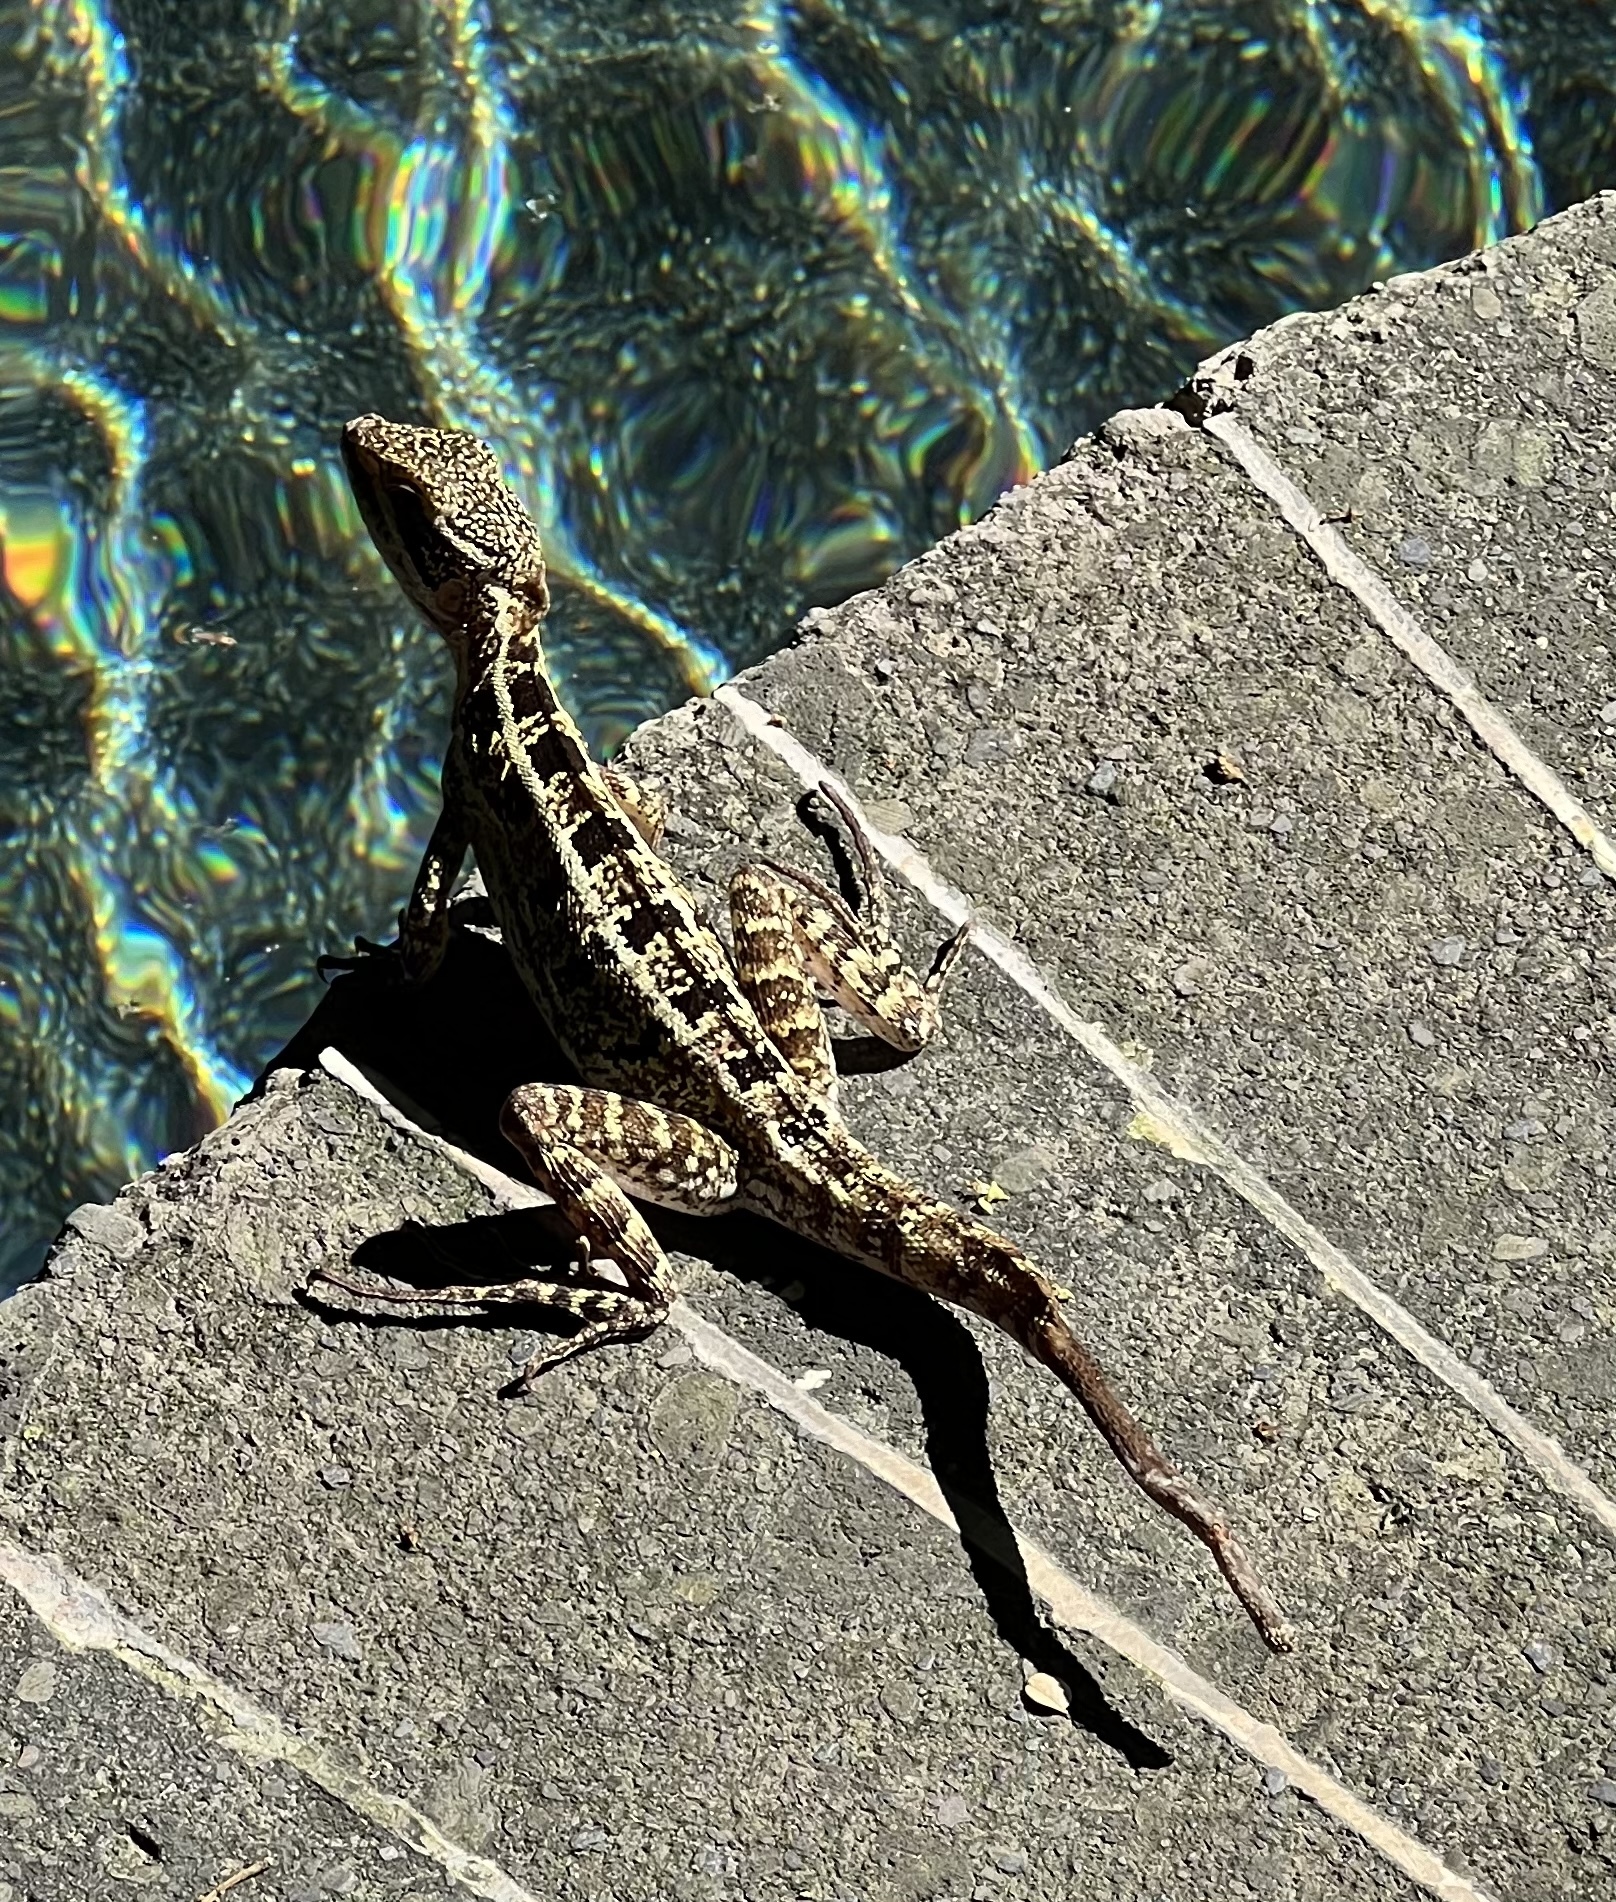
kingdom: Animalia
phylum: Chordata
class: Squamata
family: Corytophanidae
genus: Basiliscus
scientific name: Basiliscus vittatus
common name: Brown basilisk
